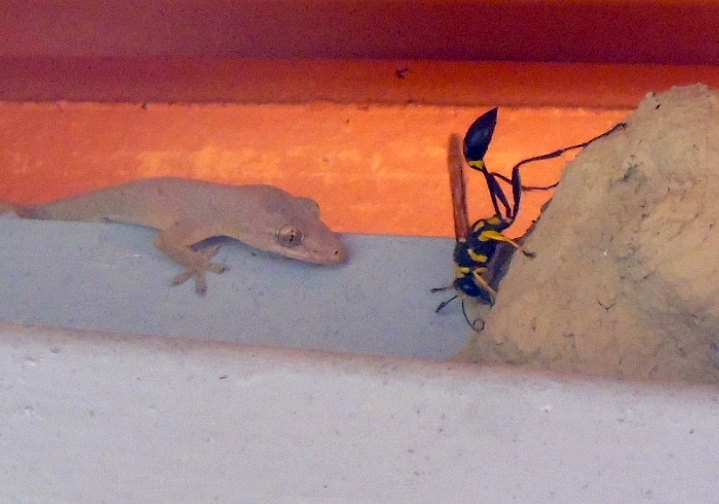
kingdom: Animalia
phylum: Arthropoda
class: Insecta
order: Hymenoptera
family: Sphecidae
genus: Sceliphron
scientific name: Sceliphron fistularium
